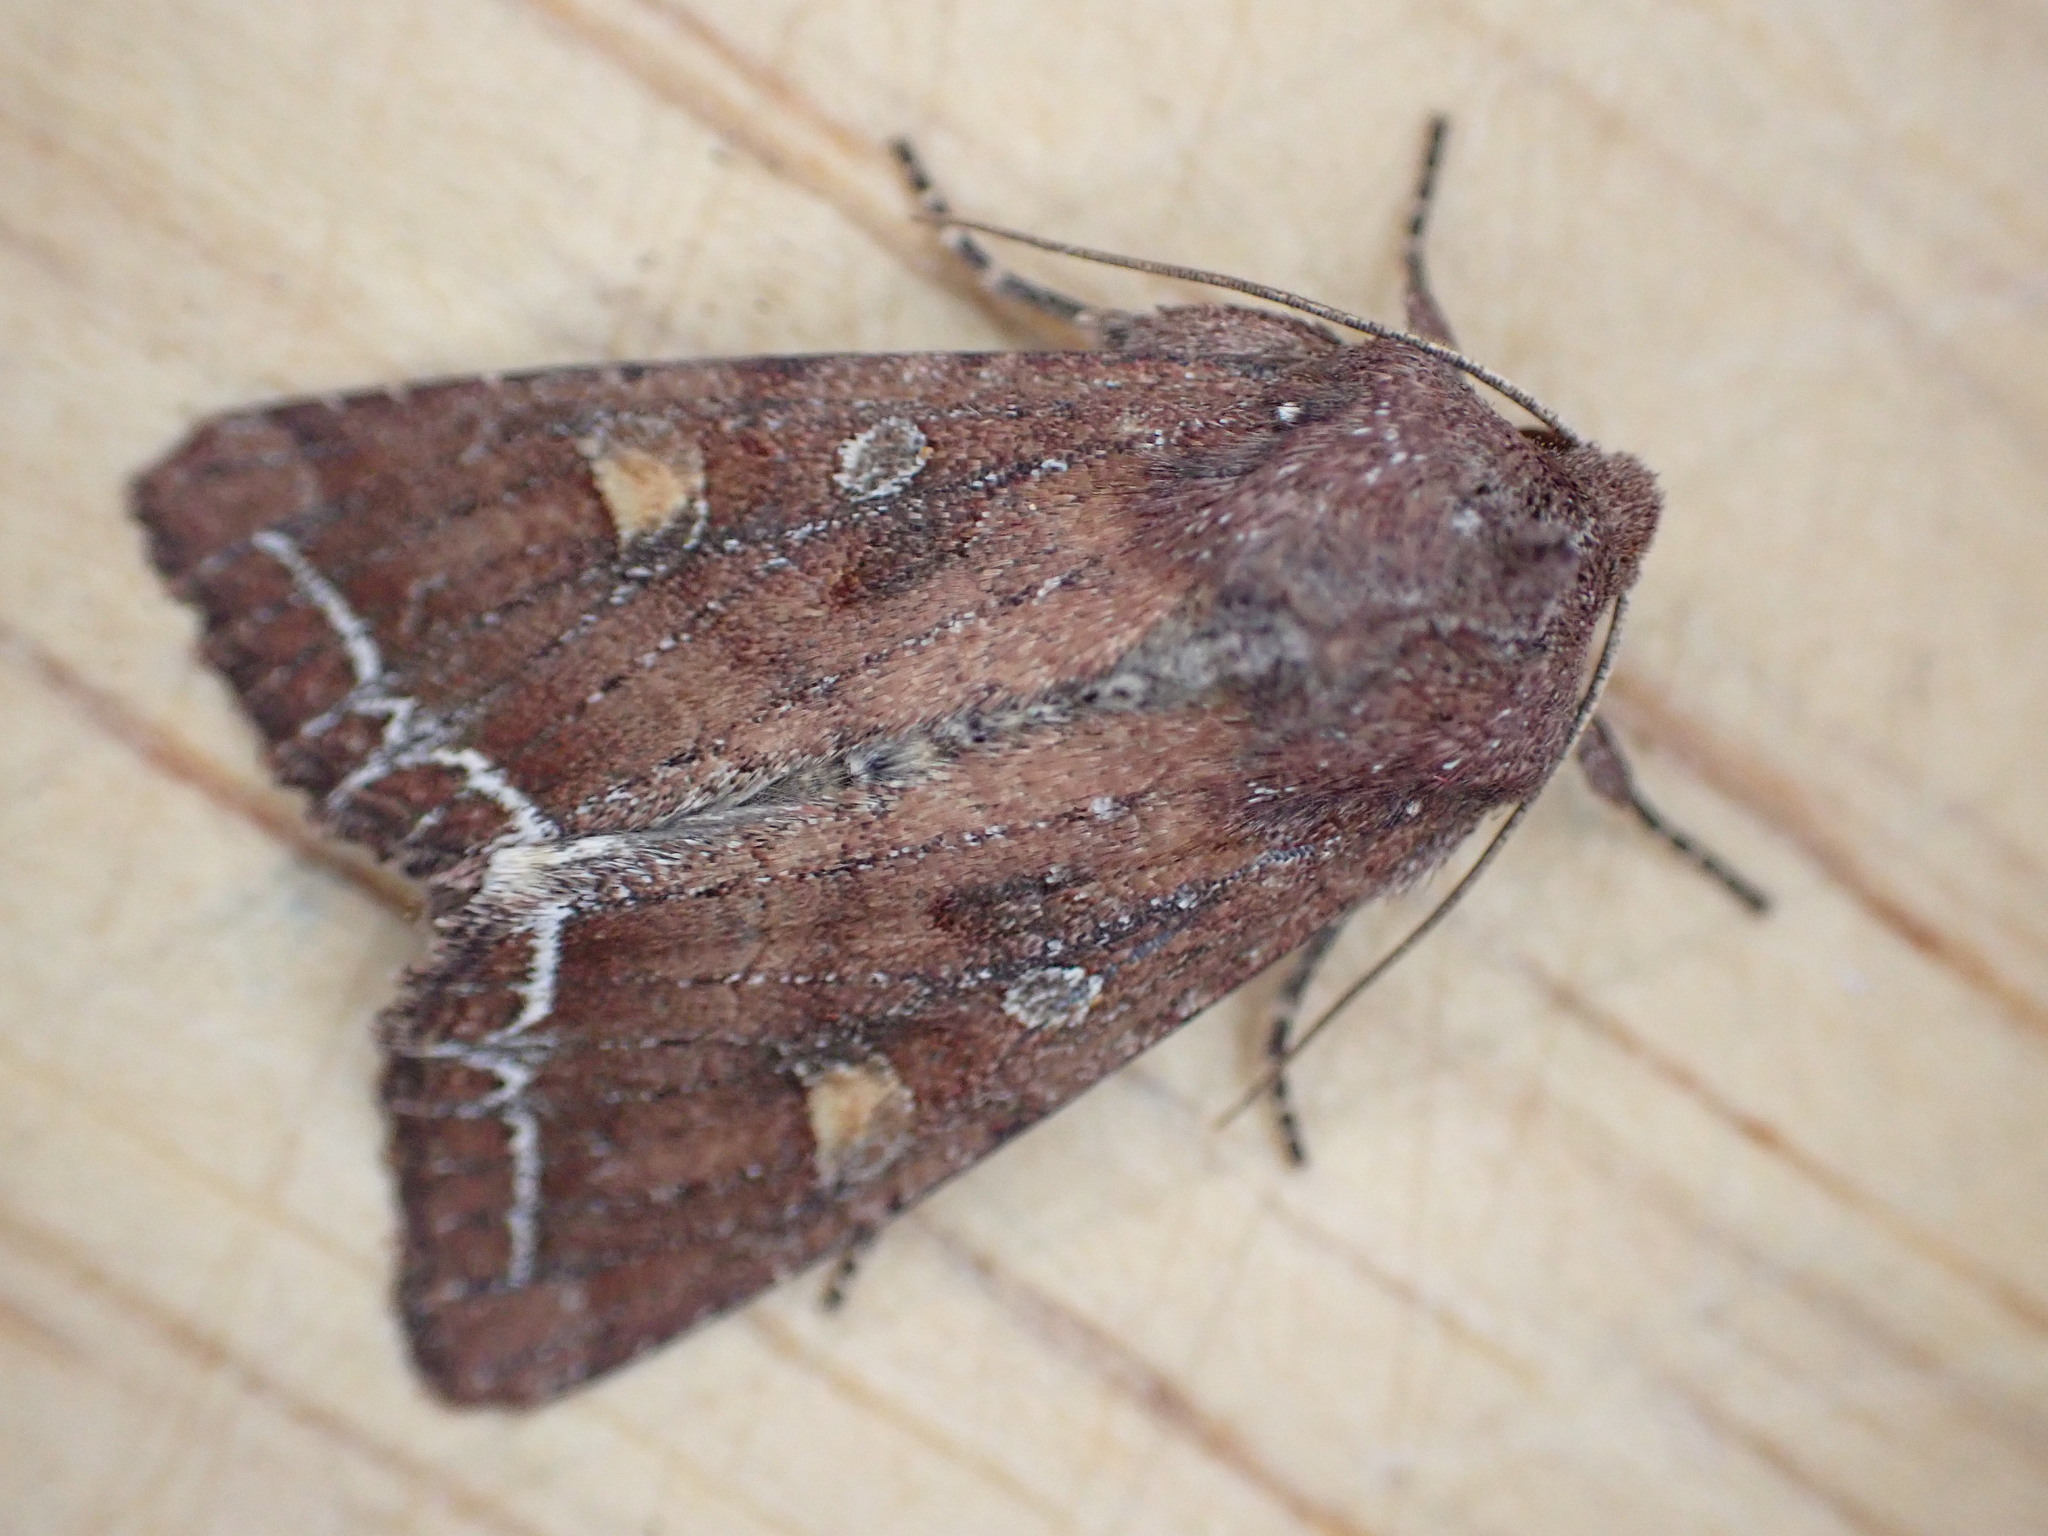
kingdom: Animalia
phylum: Arthropoda
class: Insecta
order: Lepidoptera
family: Noctuidae
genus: Lacanobia
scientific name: Lacanobia oleracea
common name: Bright-line brown-eye
